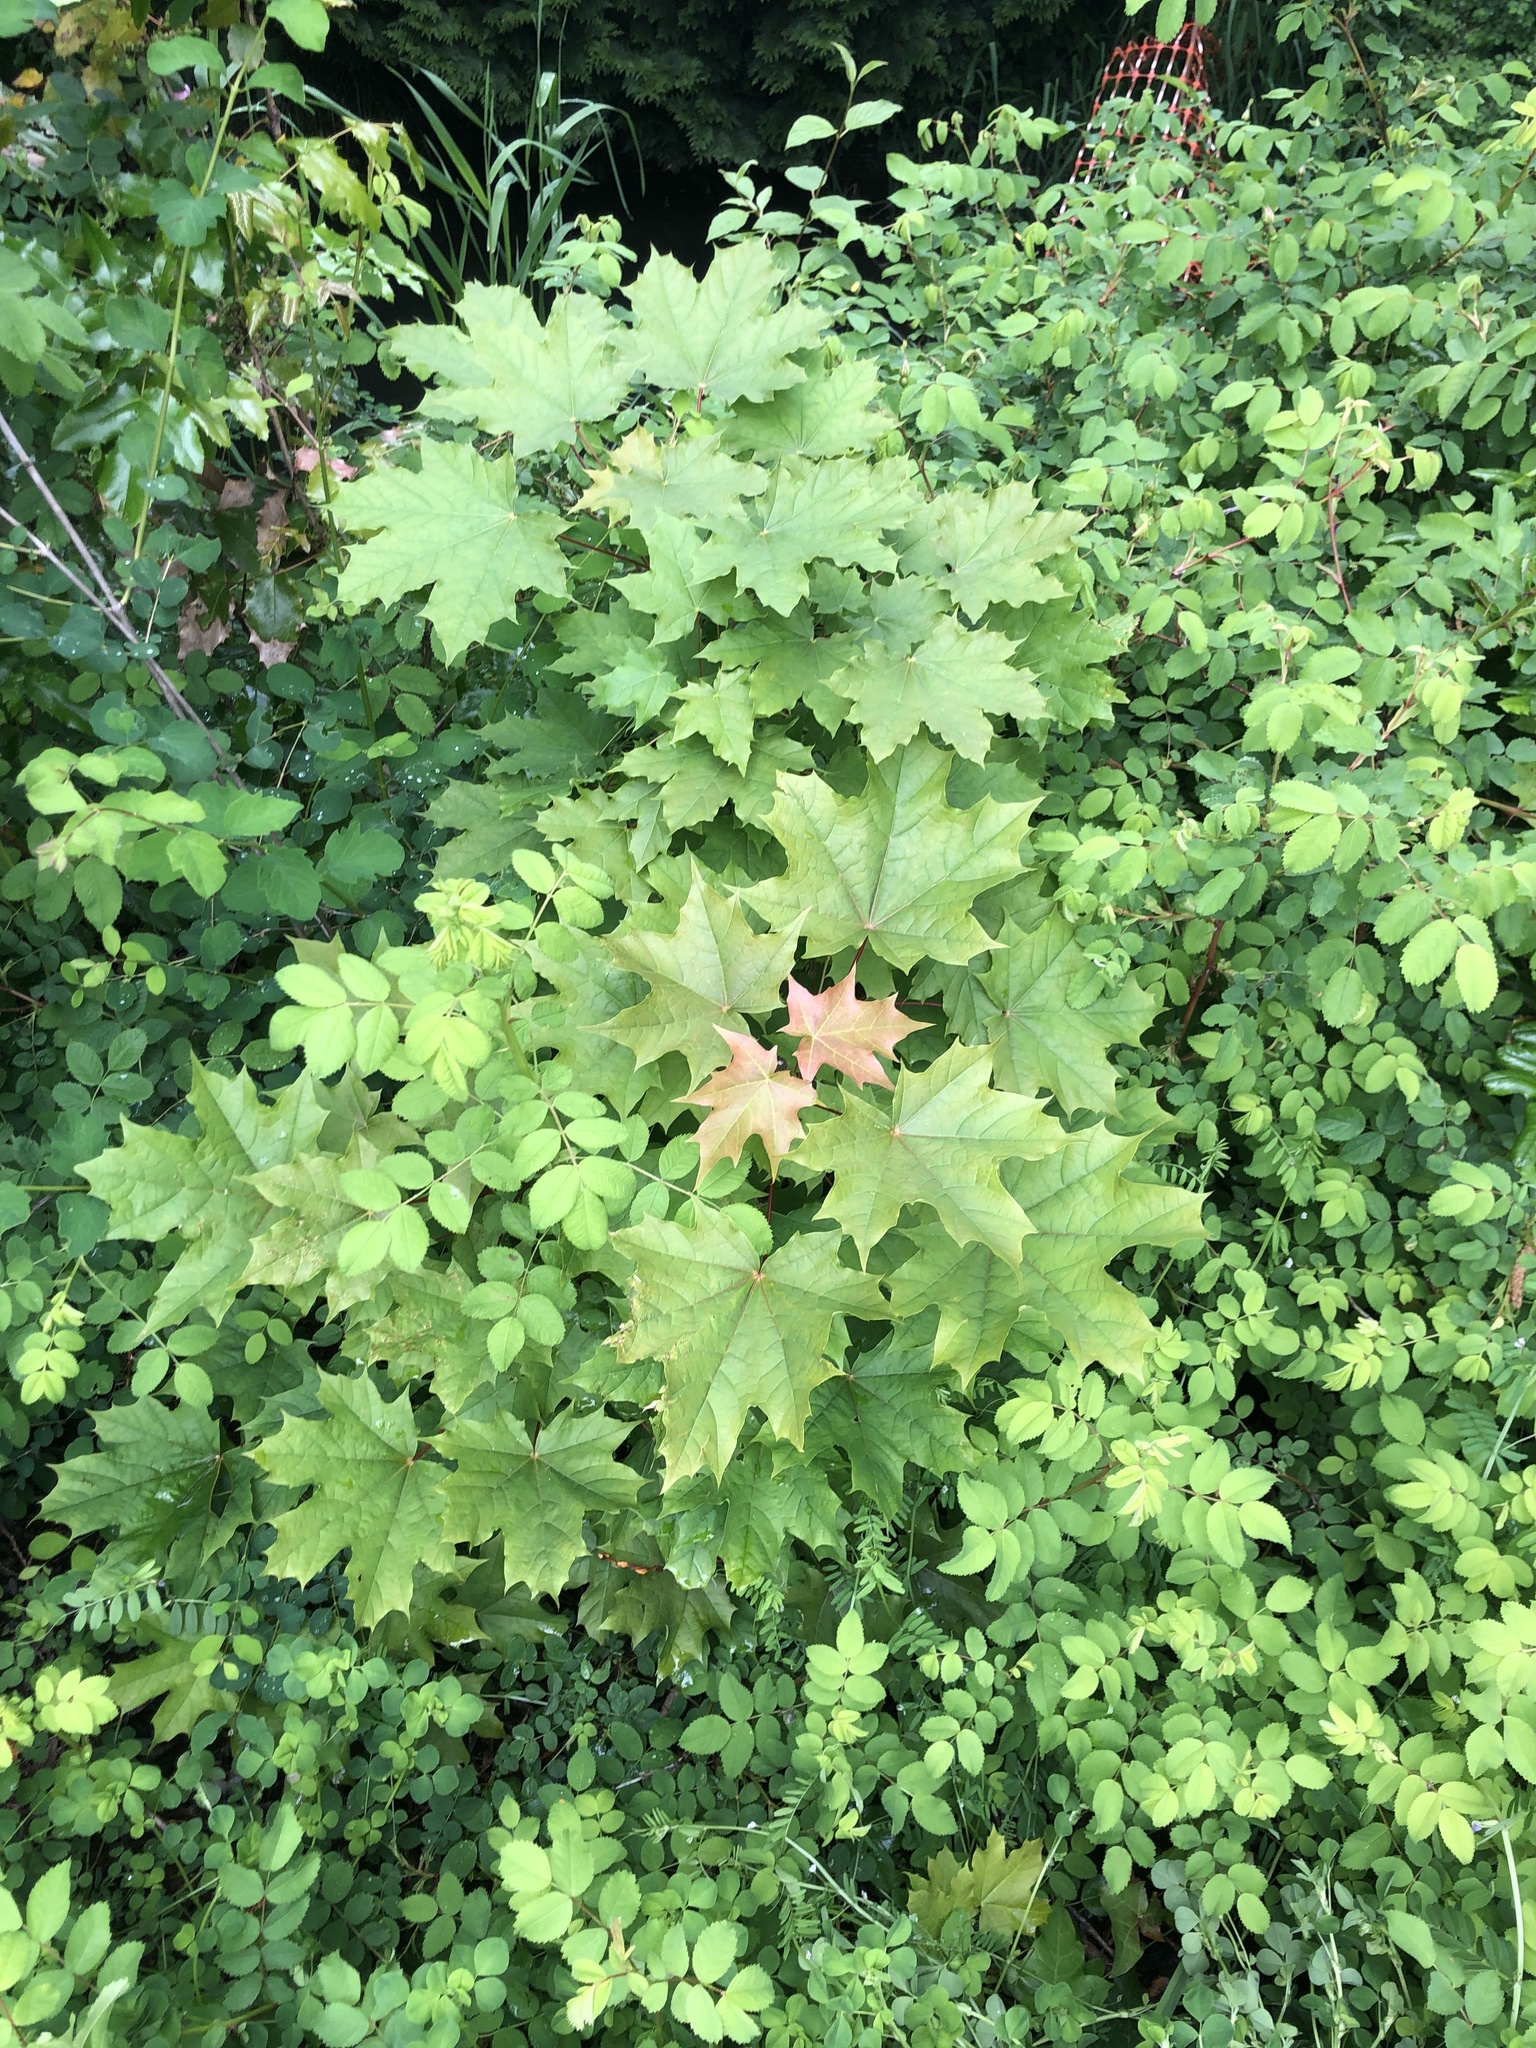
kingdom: Plantae
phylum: Tracheophyta
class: Magnoliopsida
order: Sapindales
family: Sapindaceae
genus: Acer
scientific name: Acer platanoides
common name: Norway maple
